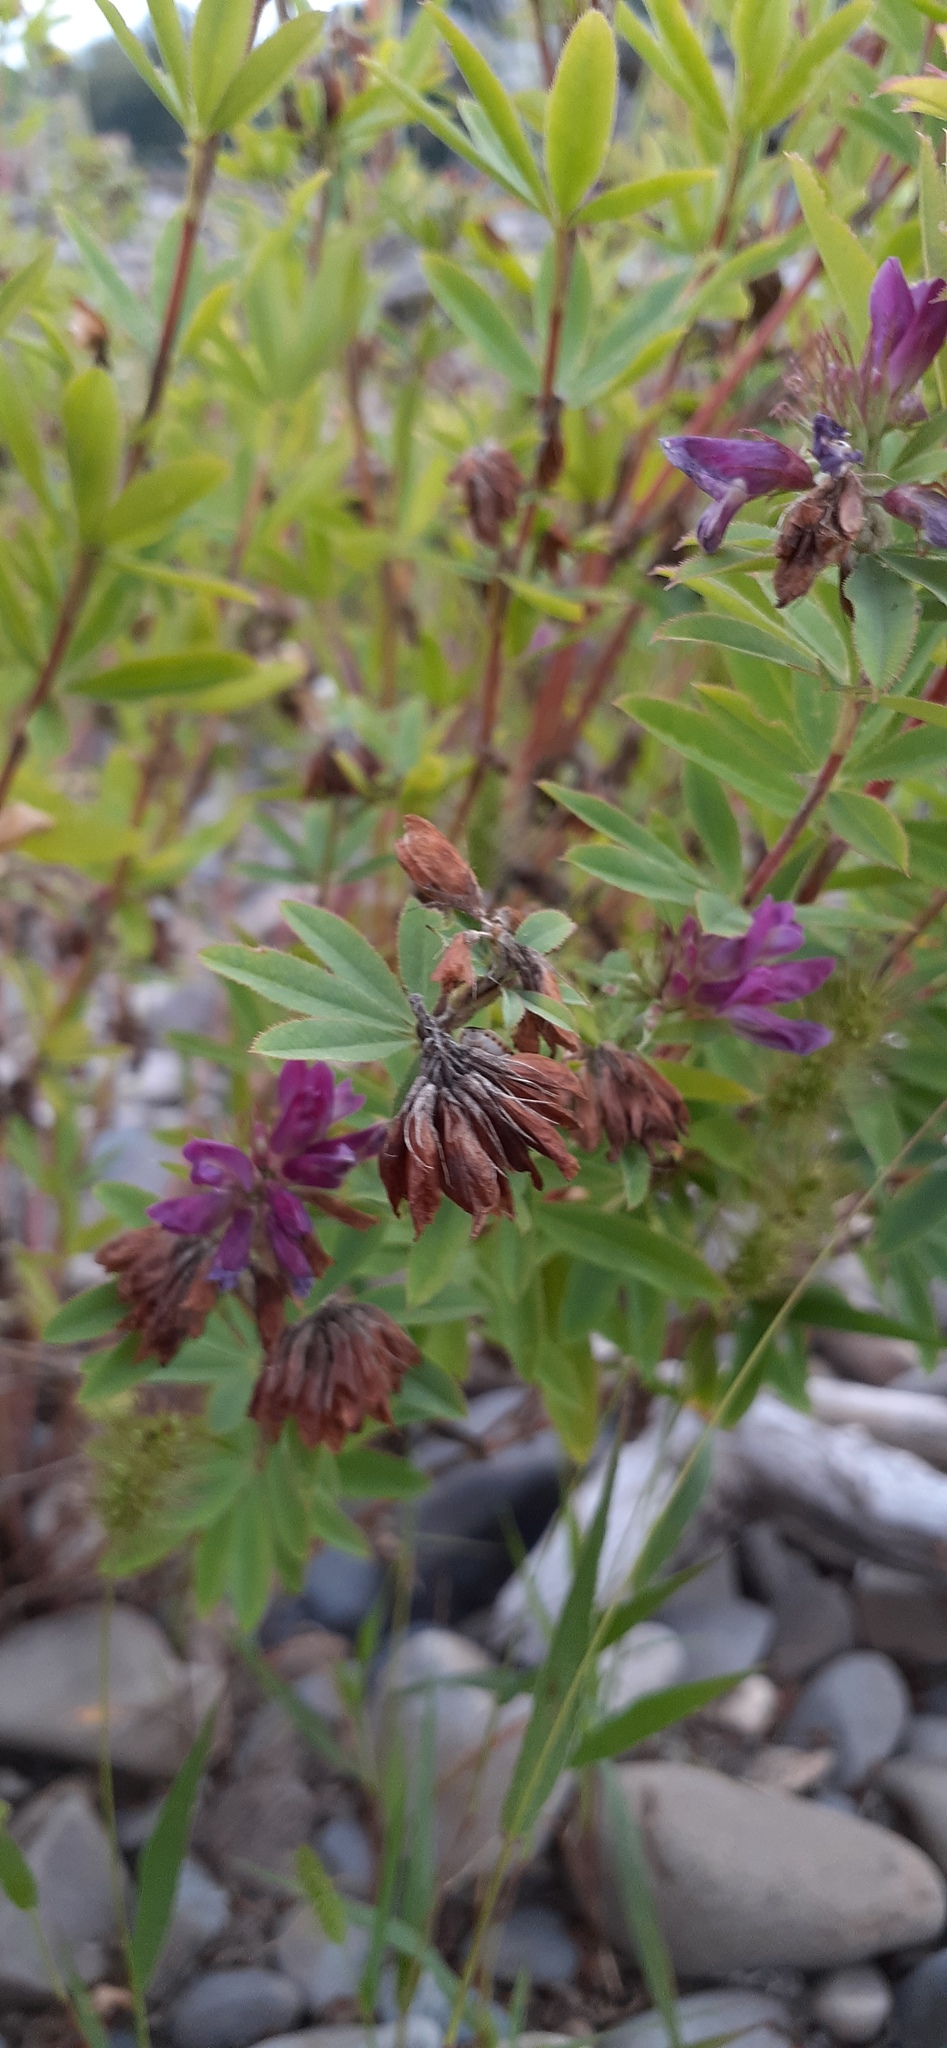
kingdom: Plantae
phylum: Tracheophyta
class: Magnoliopsida
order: Fabales
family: Fabaceae
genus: Trifolium
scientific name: Trifolium lupinaster
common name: Lupine clover
